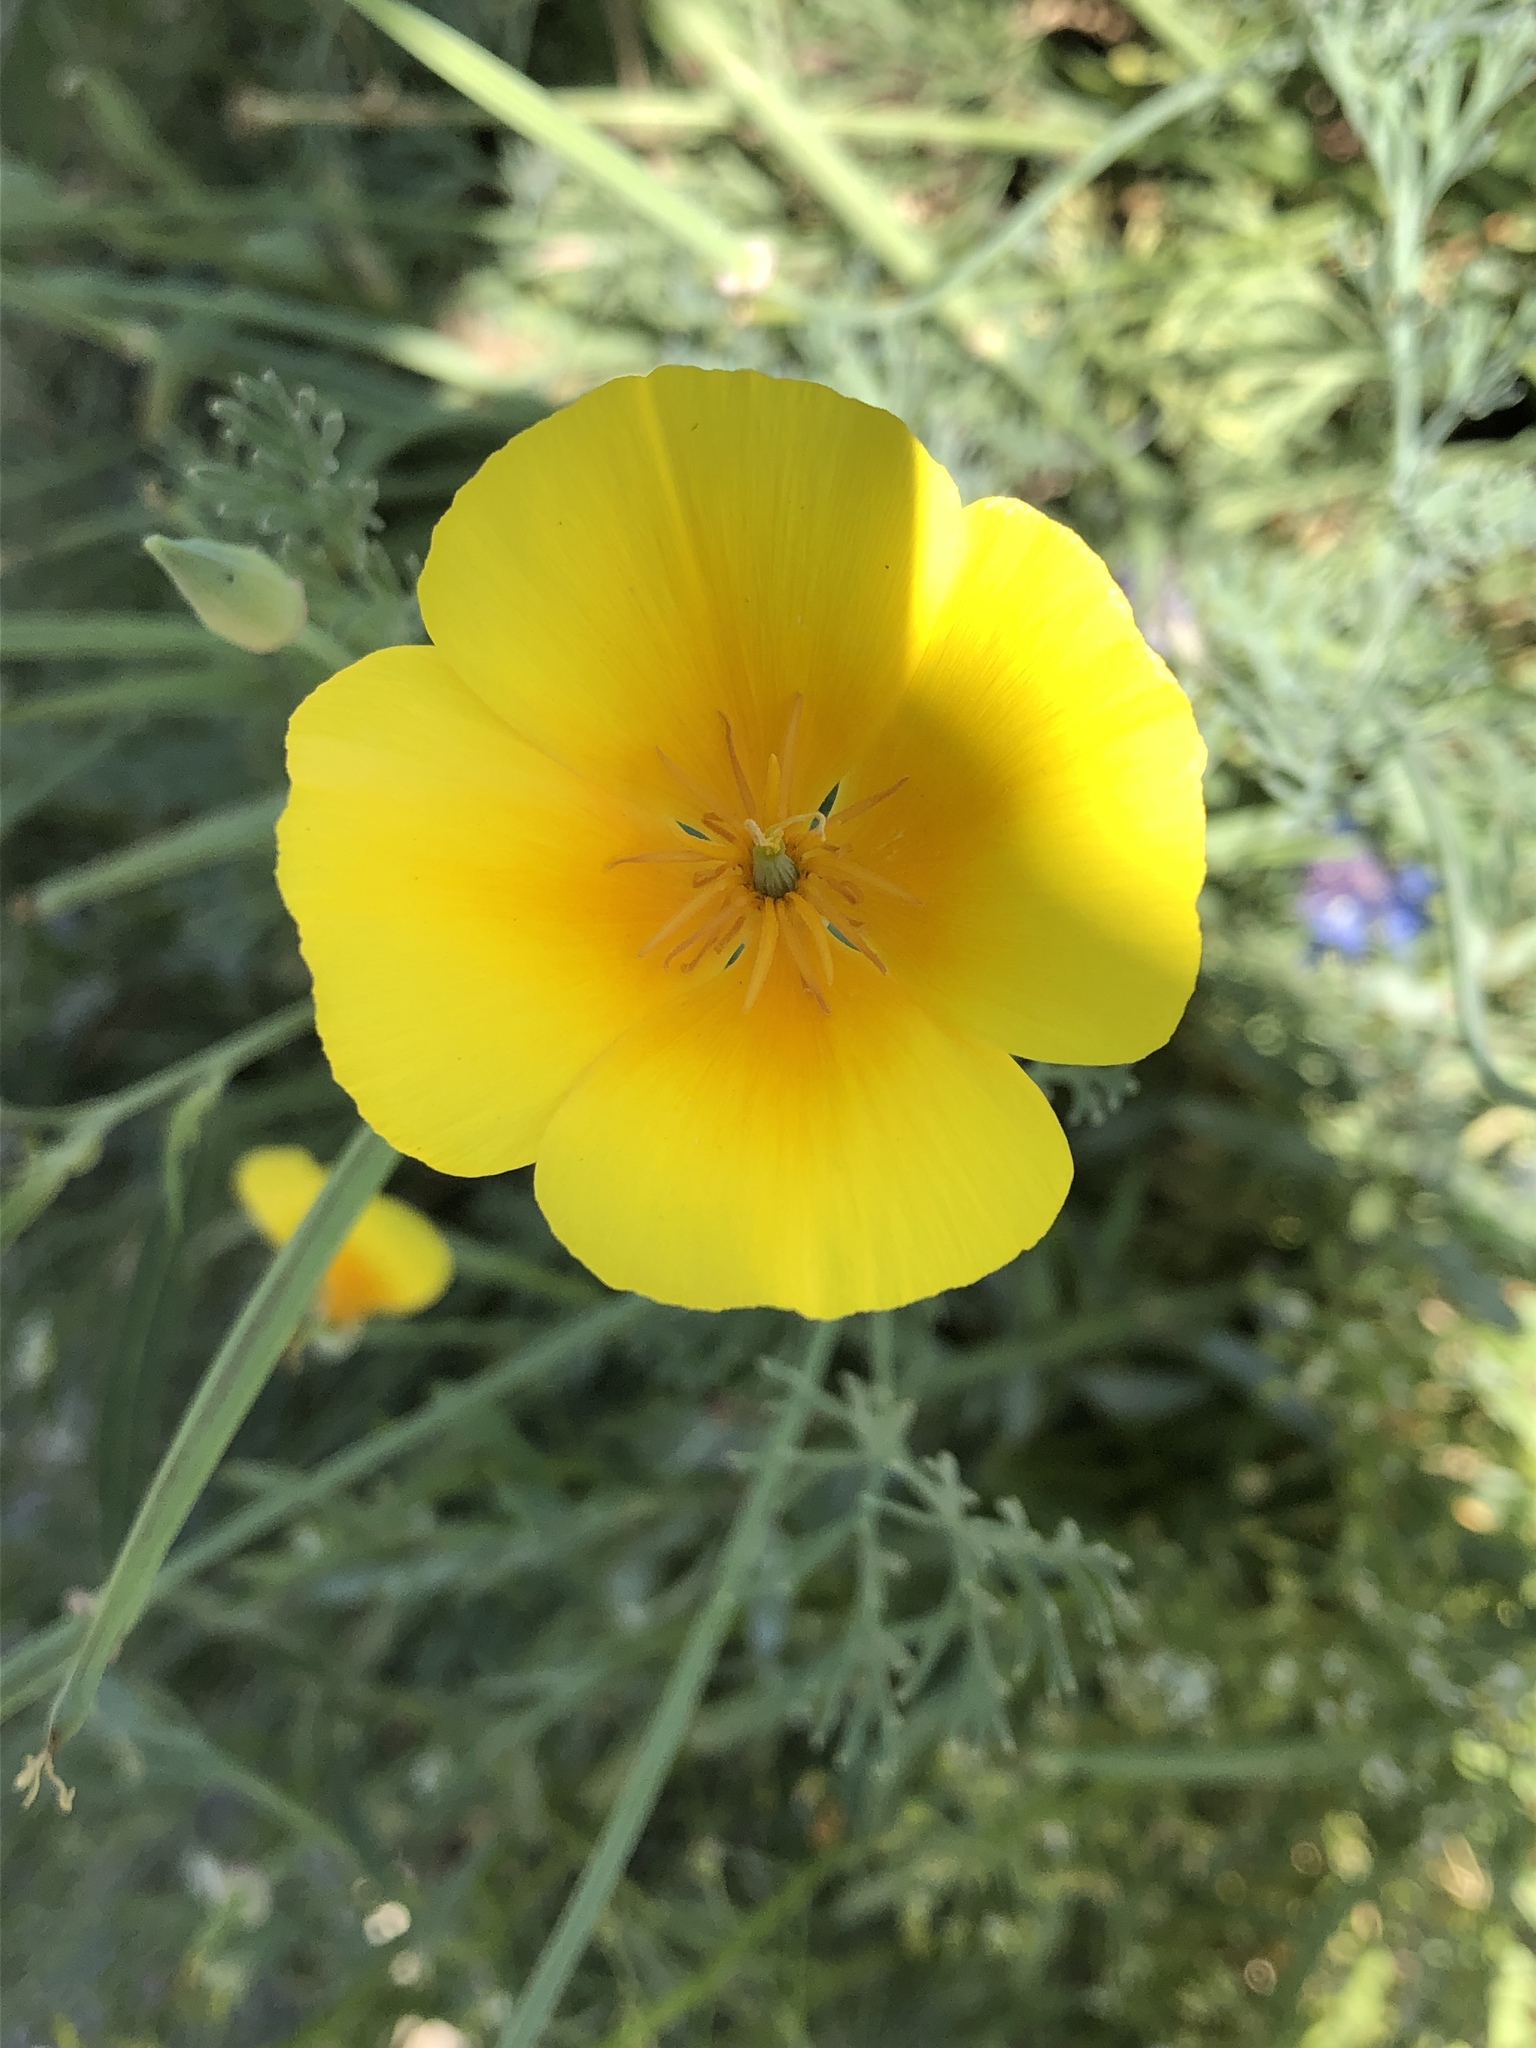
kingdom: Plantae
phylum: Tracheophyta
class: Magnoliopsida
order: Ranunculales
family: Papaveraceae
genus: Eschscholzia
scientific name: Eschscholzia californica
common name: California poppy
